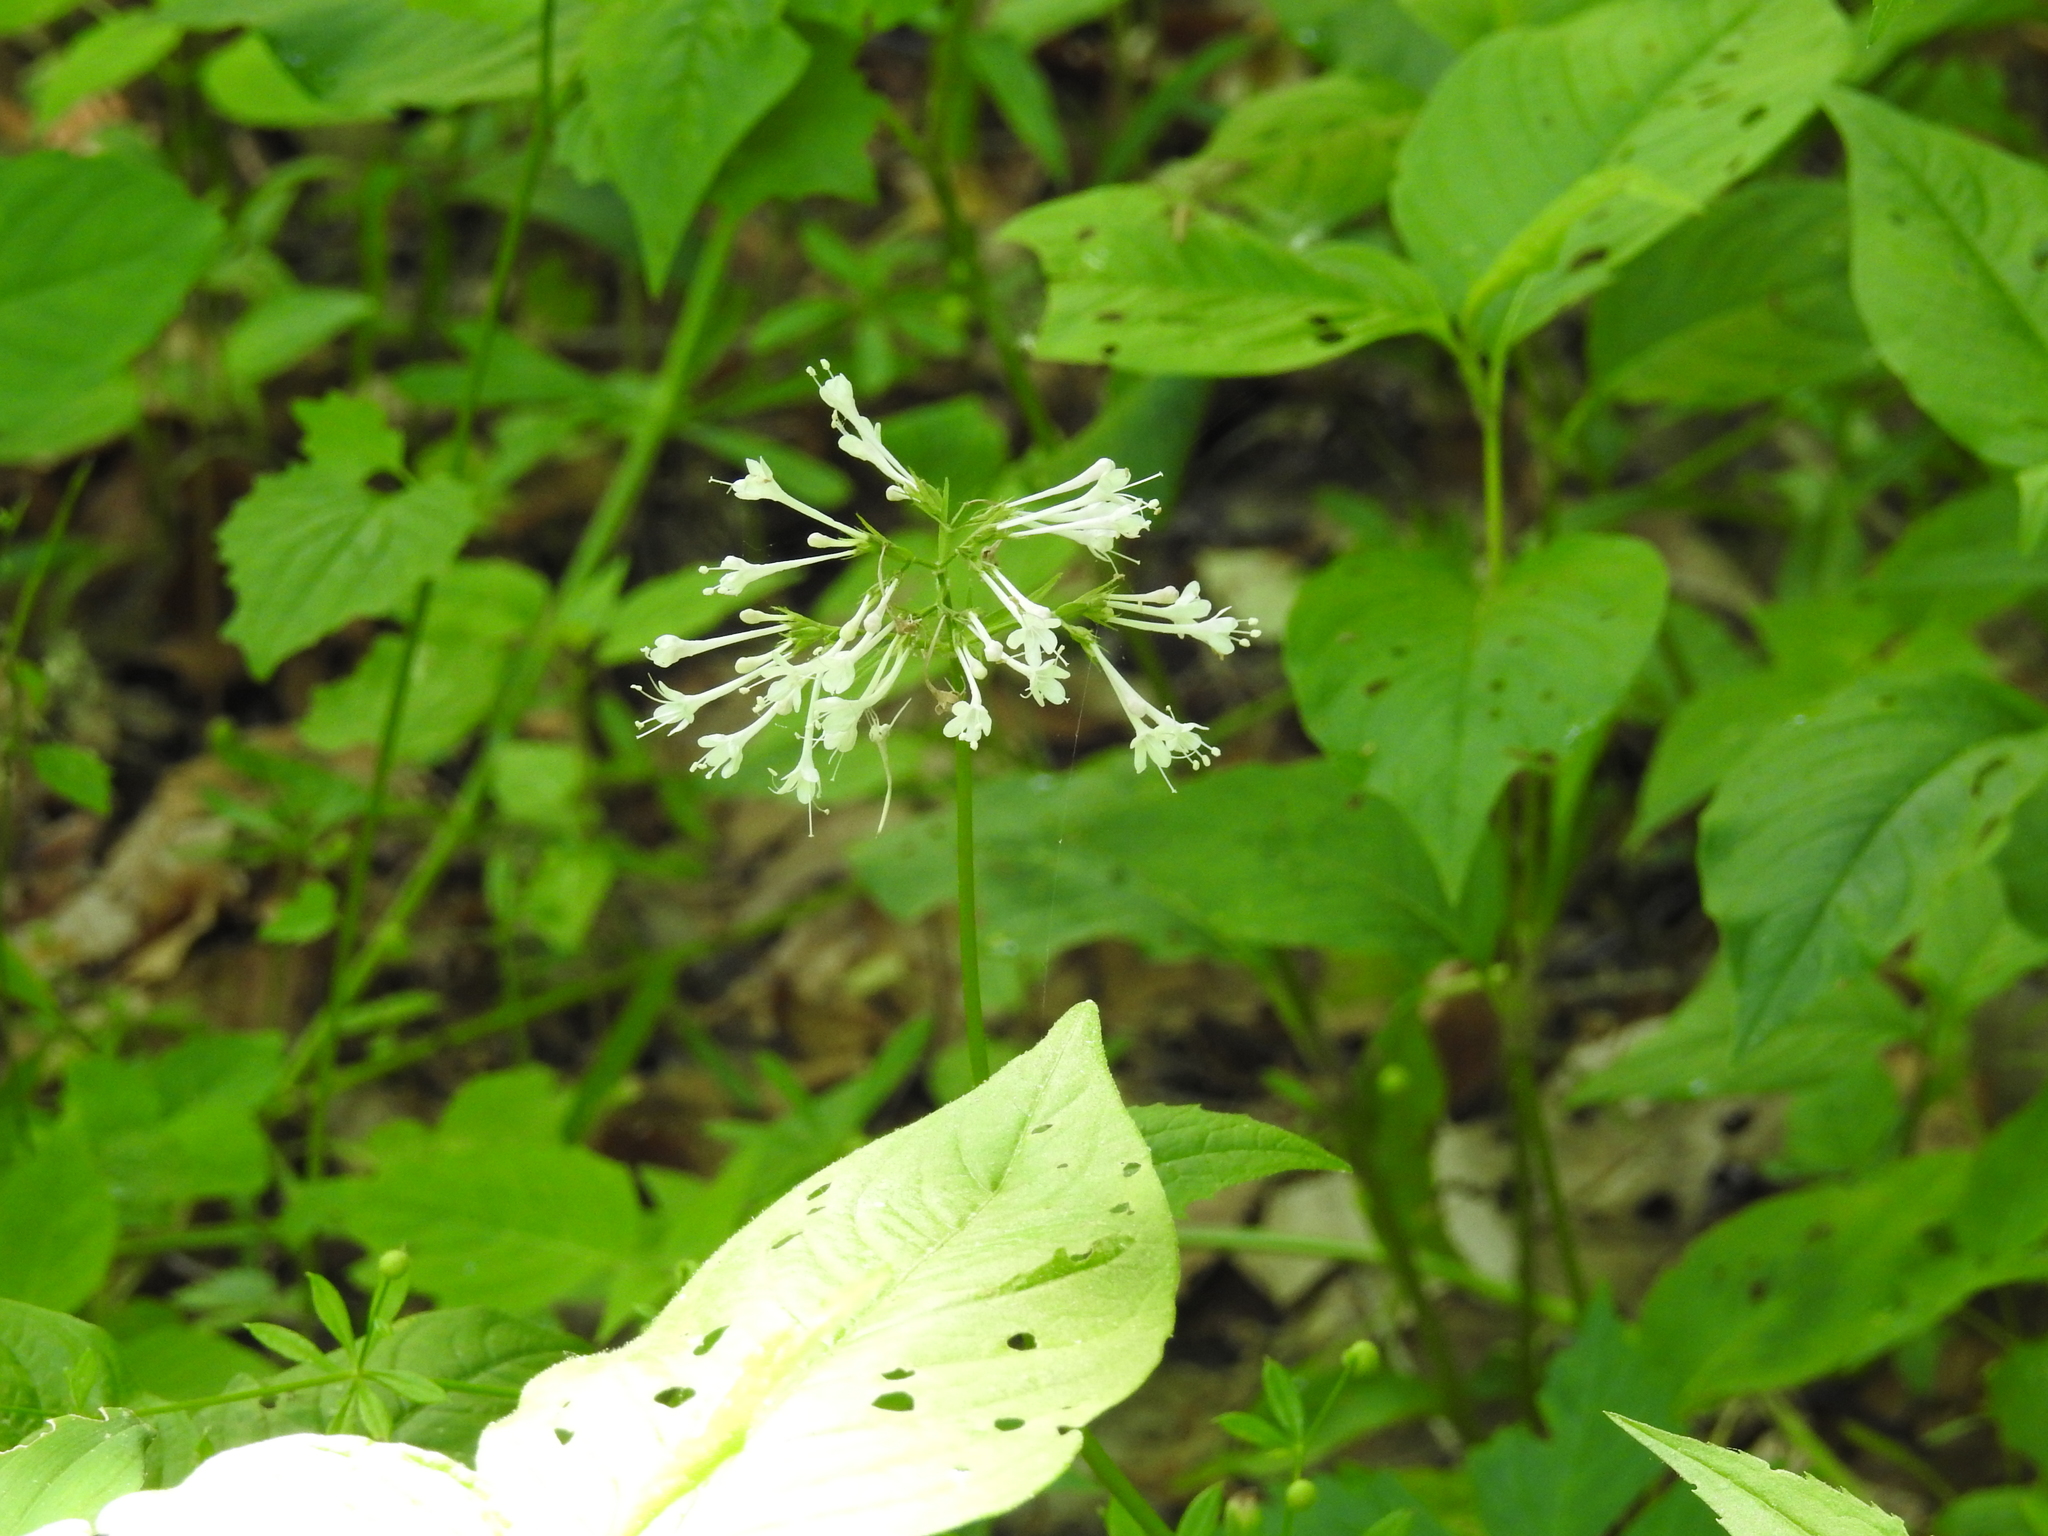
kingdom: Plantae
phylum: Tracheophyta
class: Magnoliopsida
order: Dipsacales
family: Caprifoliaceae
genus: Valeriana
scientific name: Valeriana pauciflora
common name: Long-tube valeriana
